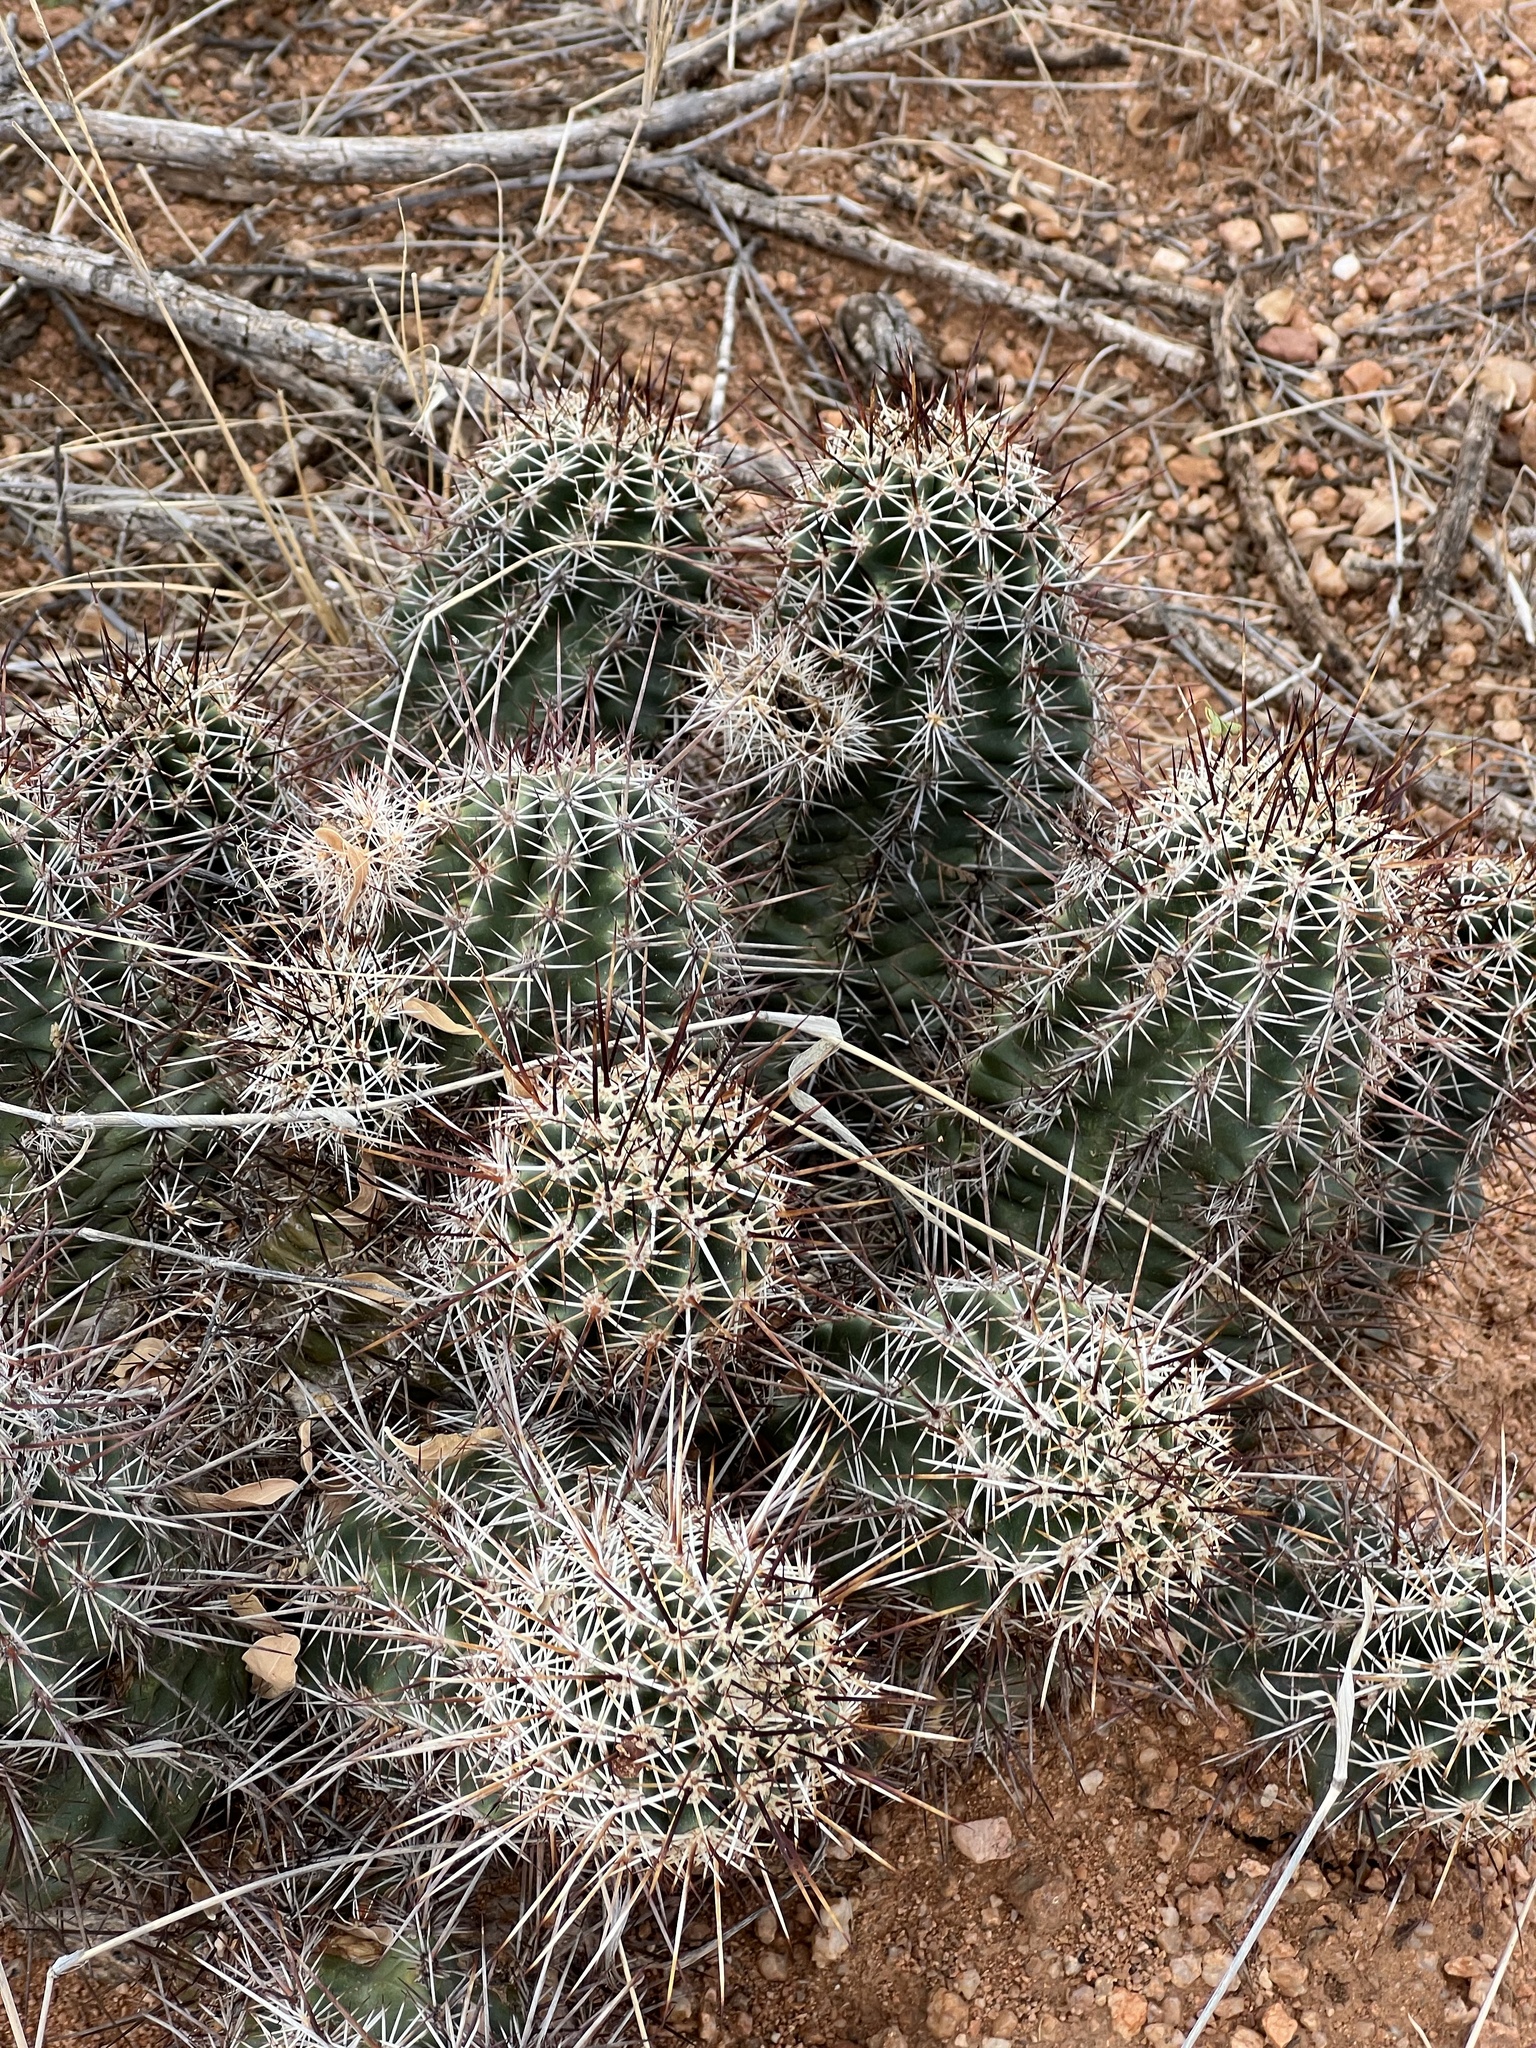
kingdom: Plantae
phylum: Tracheophyta
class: Magnoliopsida
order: Caryophyllales
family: Cactaceae
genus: Echinocereus
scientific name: Echinocereus fasciculatus
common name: Bundle hedgehog
